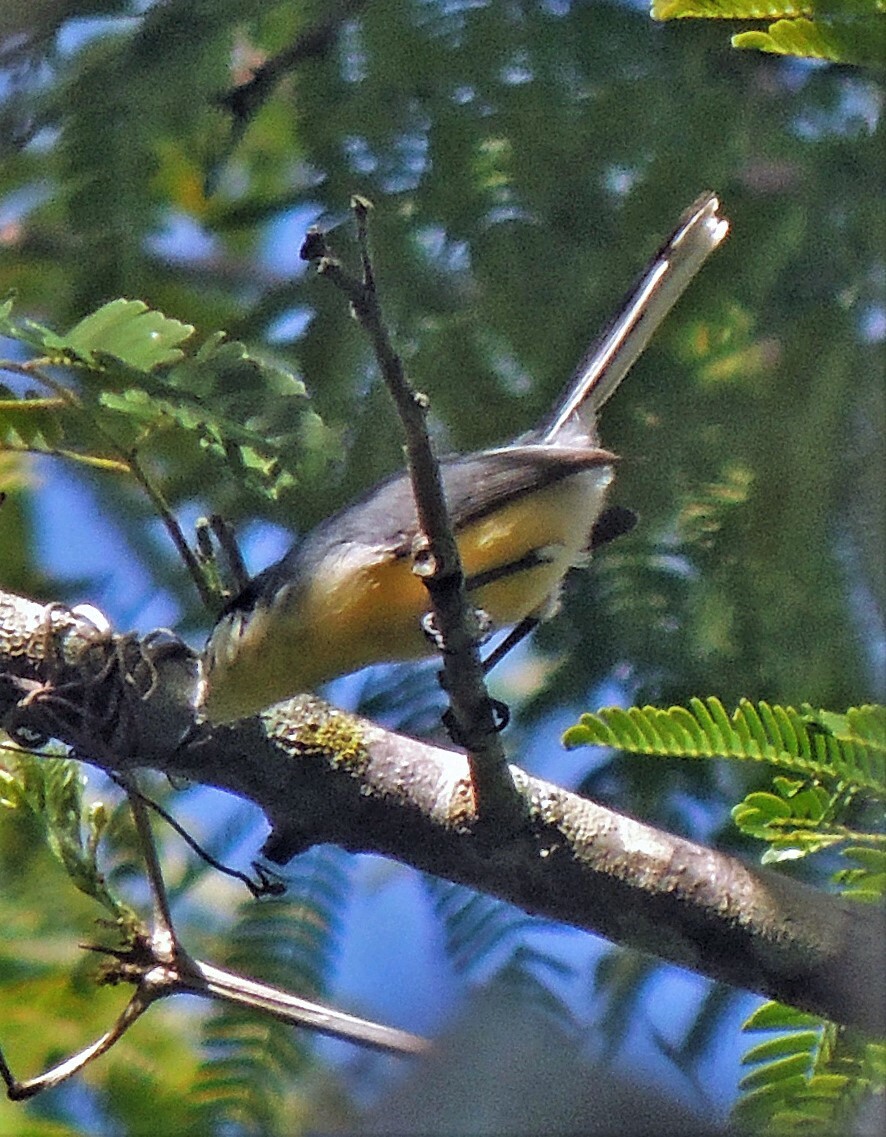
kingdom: Animalia
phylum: Chordata
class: Aves
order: Passeriformes
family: Polioptilidae
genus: Polioptila
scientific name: Polioptila lactea
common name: Creamy-bellied gnatcatcher
